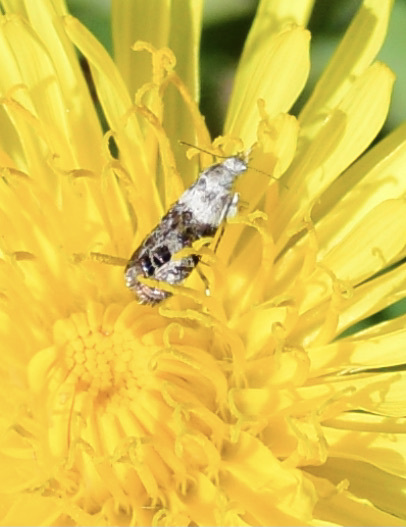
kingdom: Animalia
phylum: Arthropoda
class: Insecta
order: Lepidoptera
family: Choreutidae
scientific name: Choreutidae
